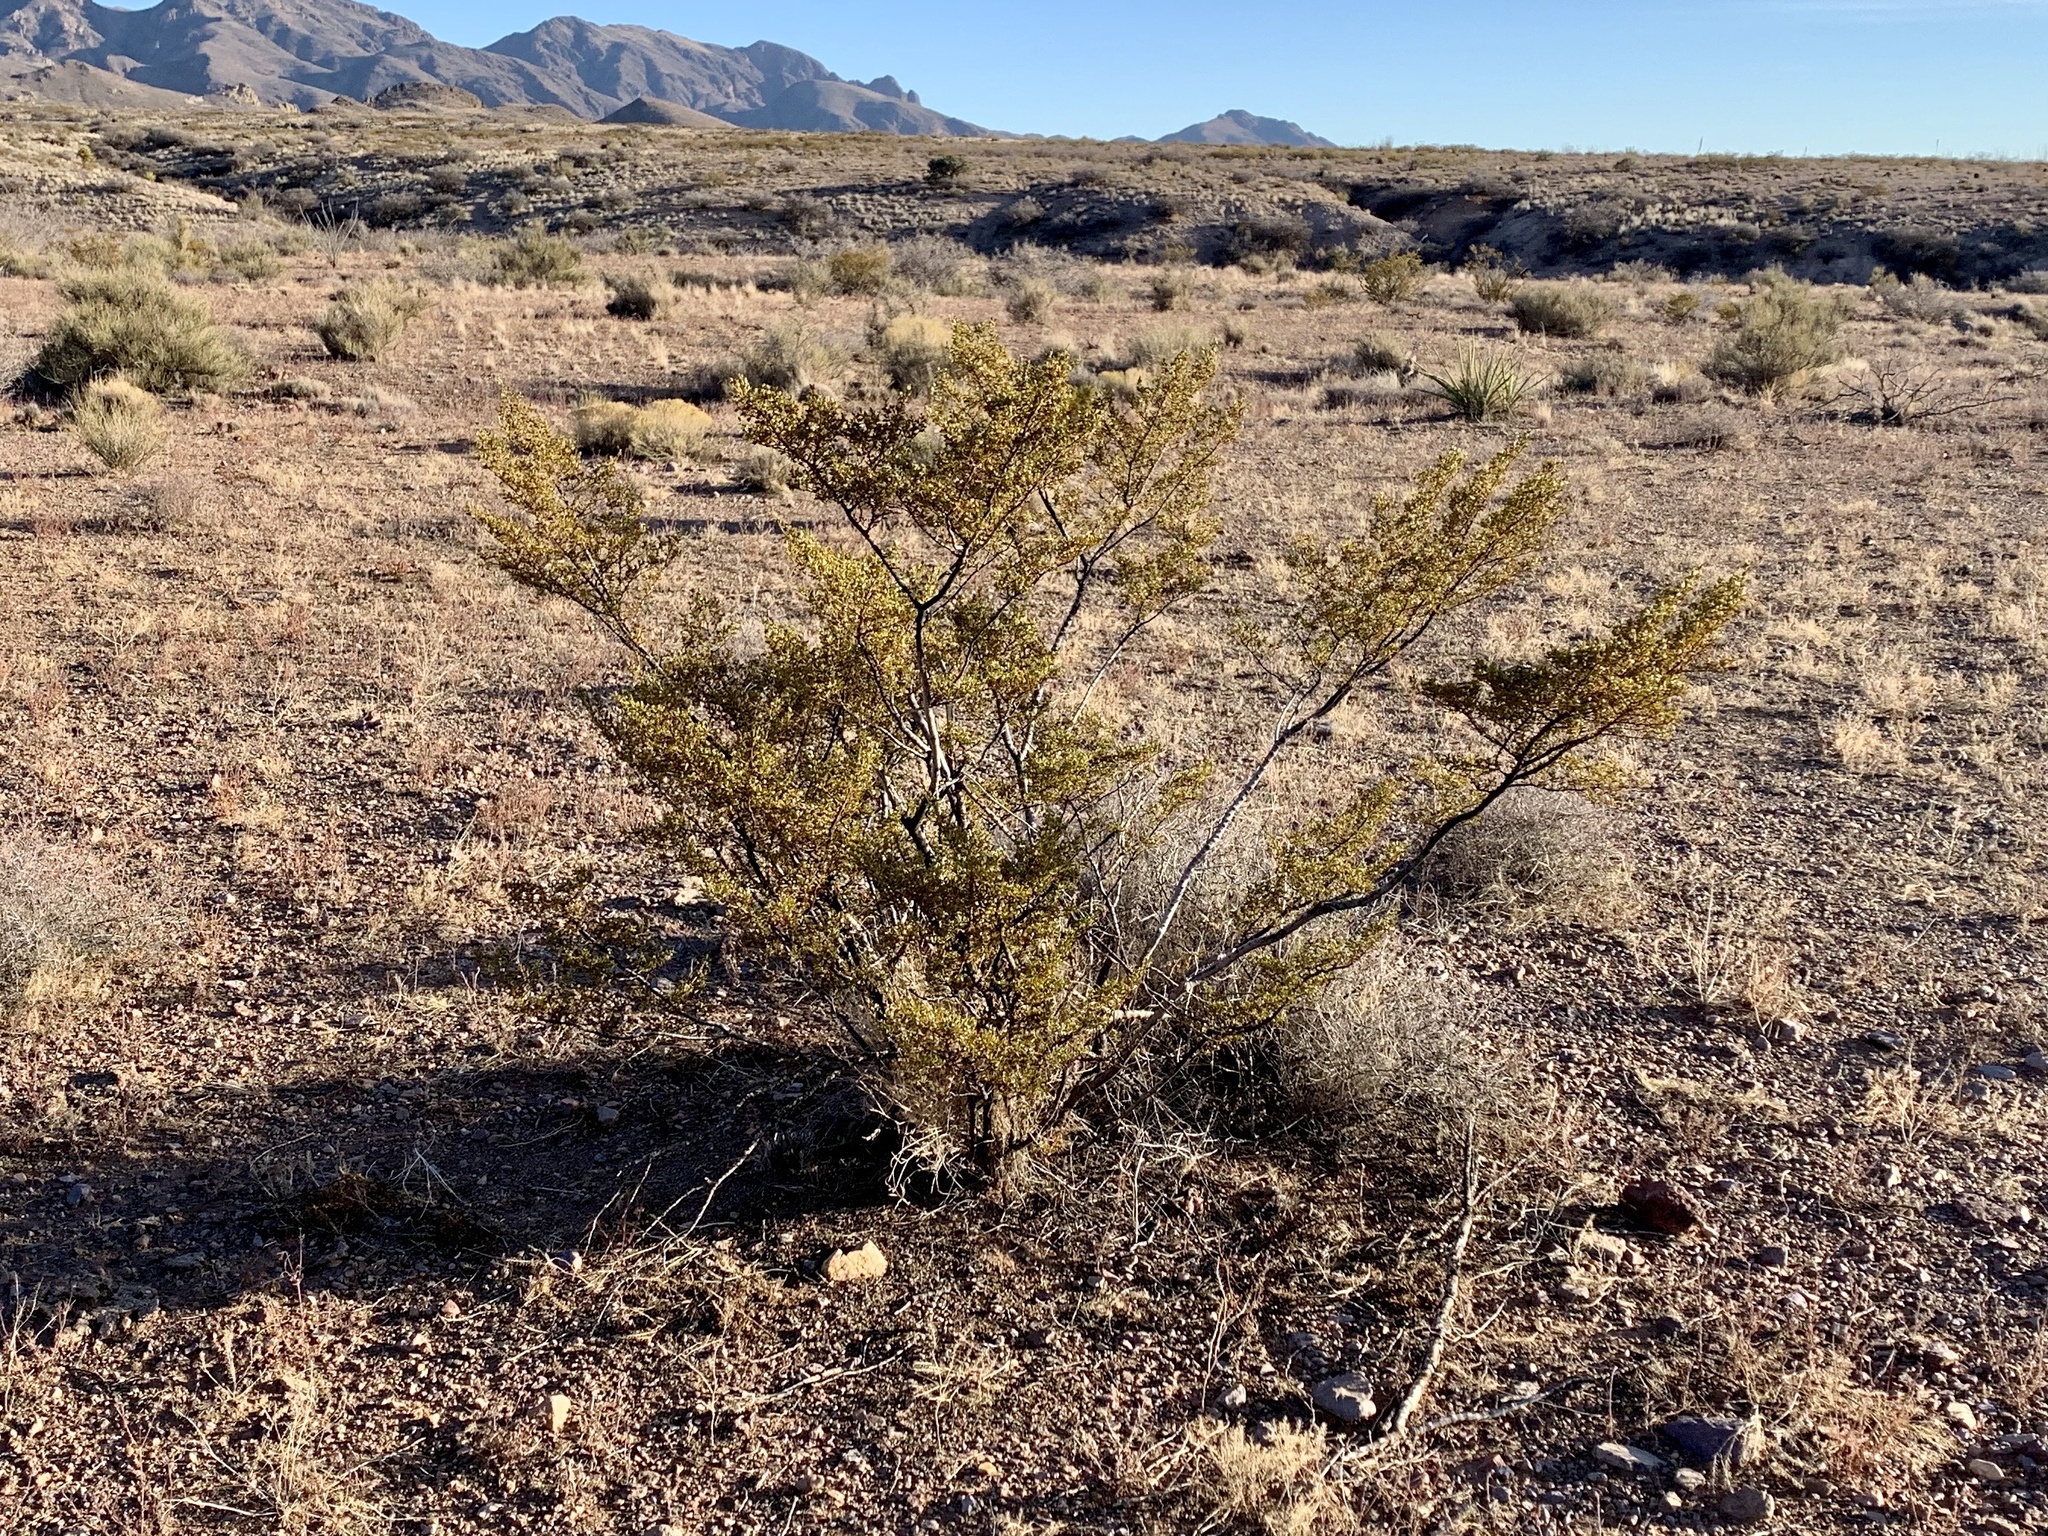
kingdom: Plantae
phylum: Tracheophyta
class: Magnoliopsida
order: Zygophyllales
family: Zygophyllaceae
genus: Larrea
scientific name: Larrea tridentata
